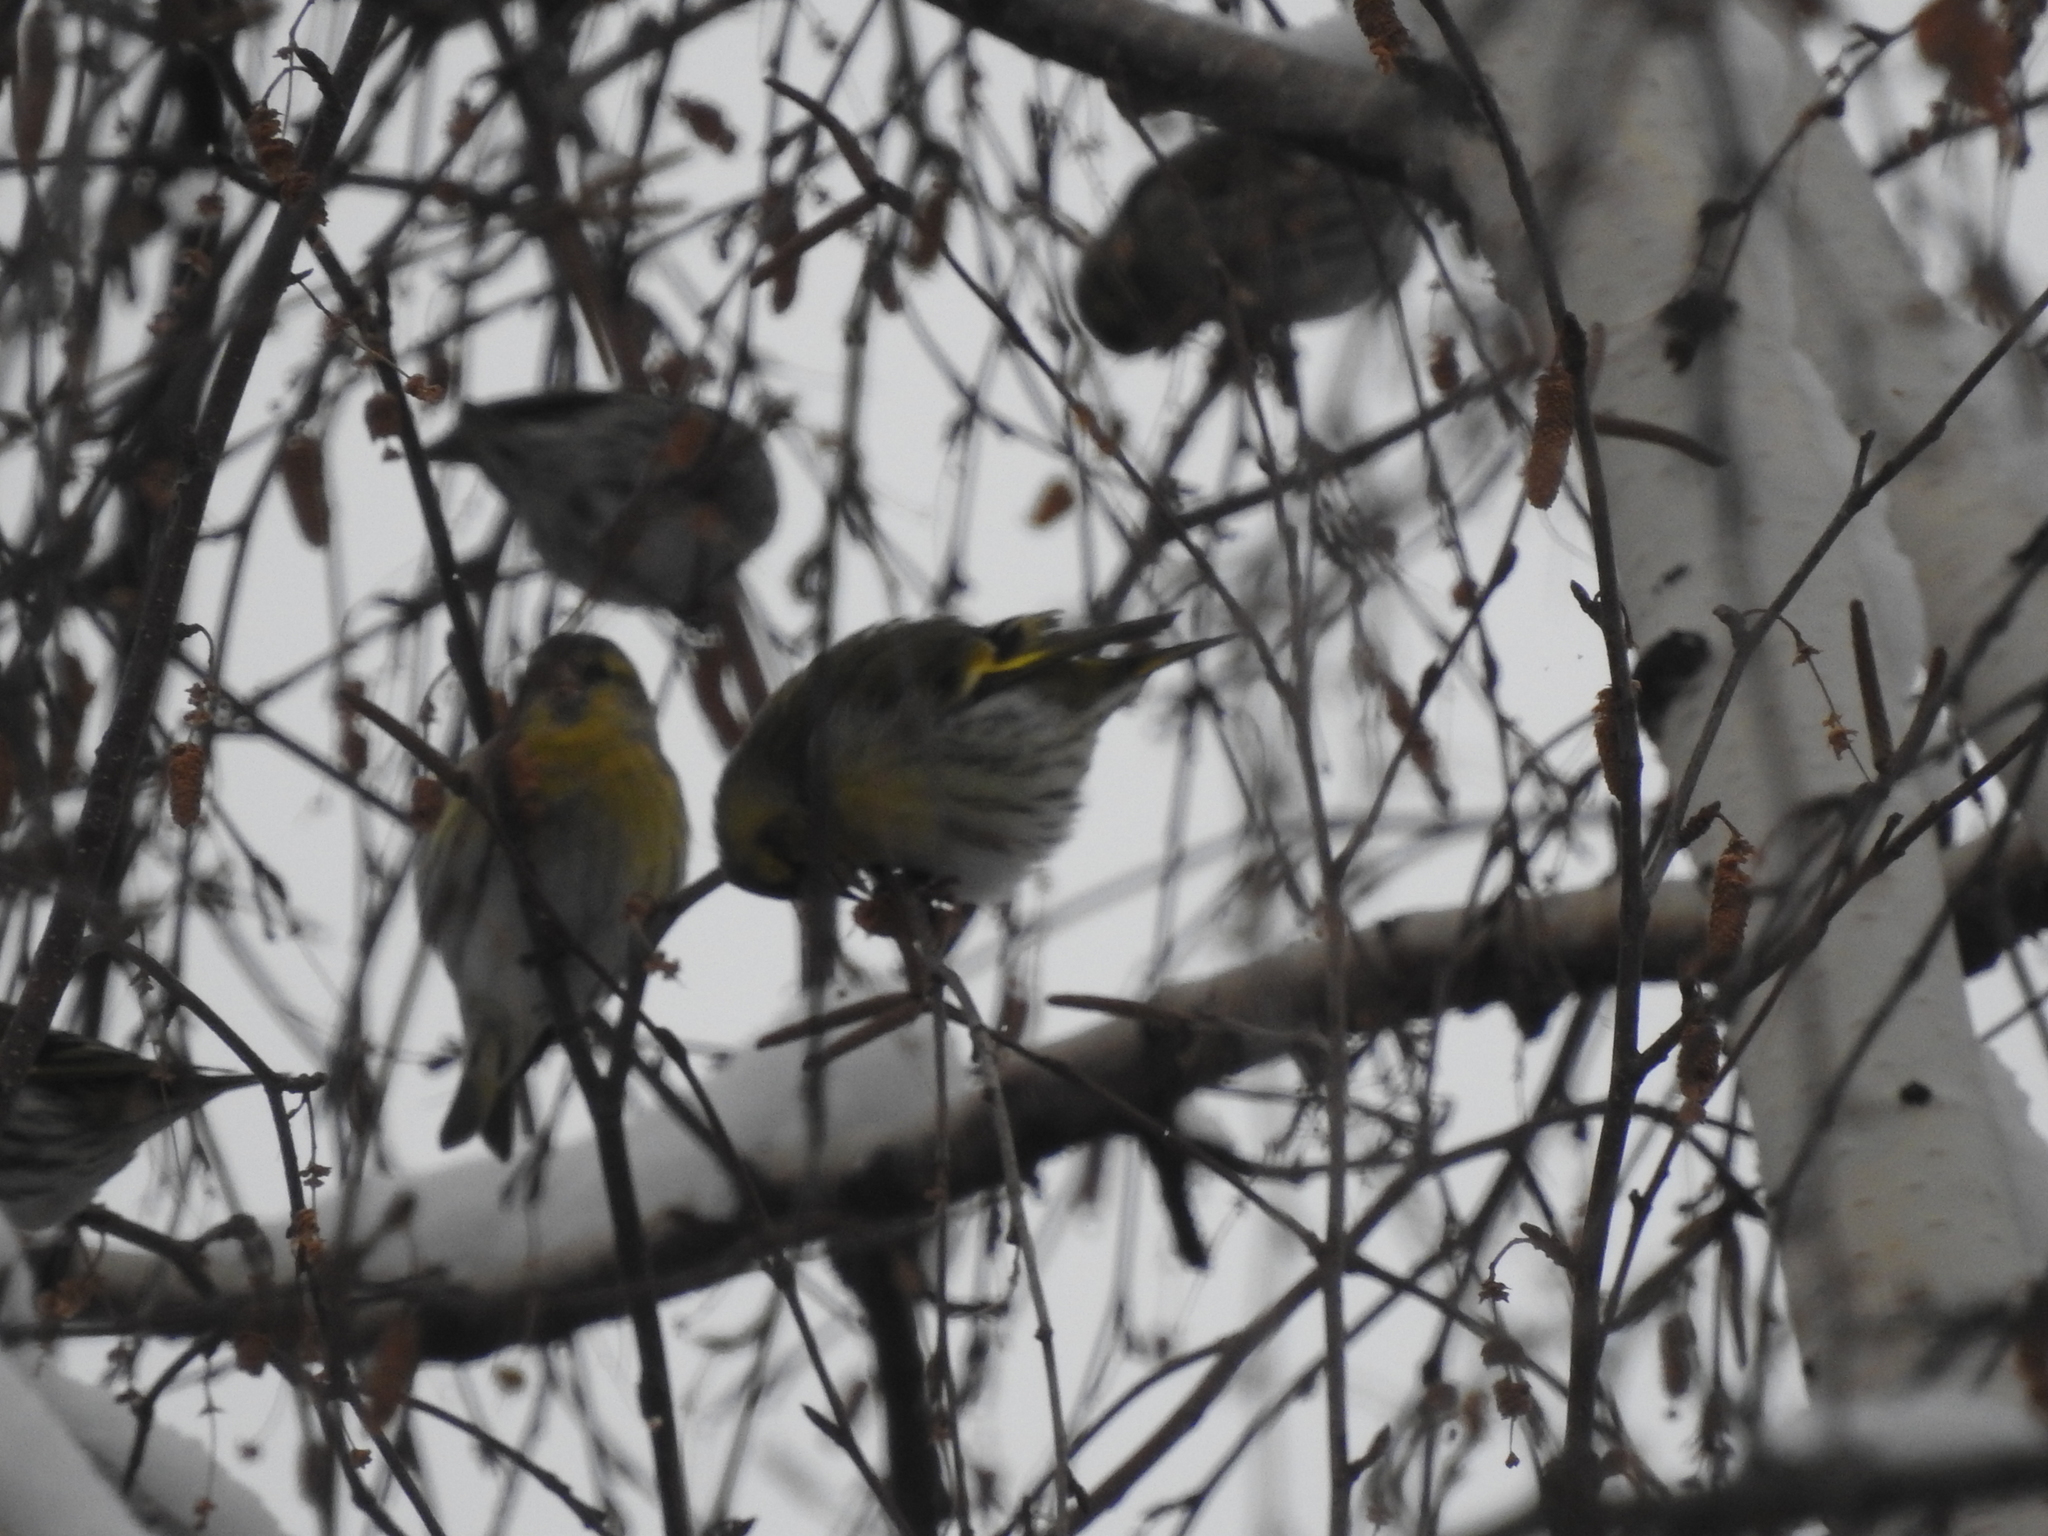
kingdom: Animalia
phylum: Chordata
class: Aves
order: Passeriformes
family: Fringillidae
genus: Spinus
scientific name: Spinus spinus
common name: Eurasian siskin
